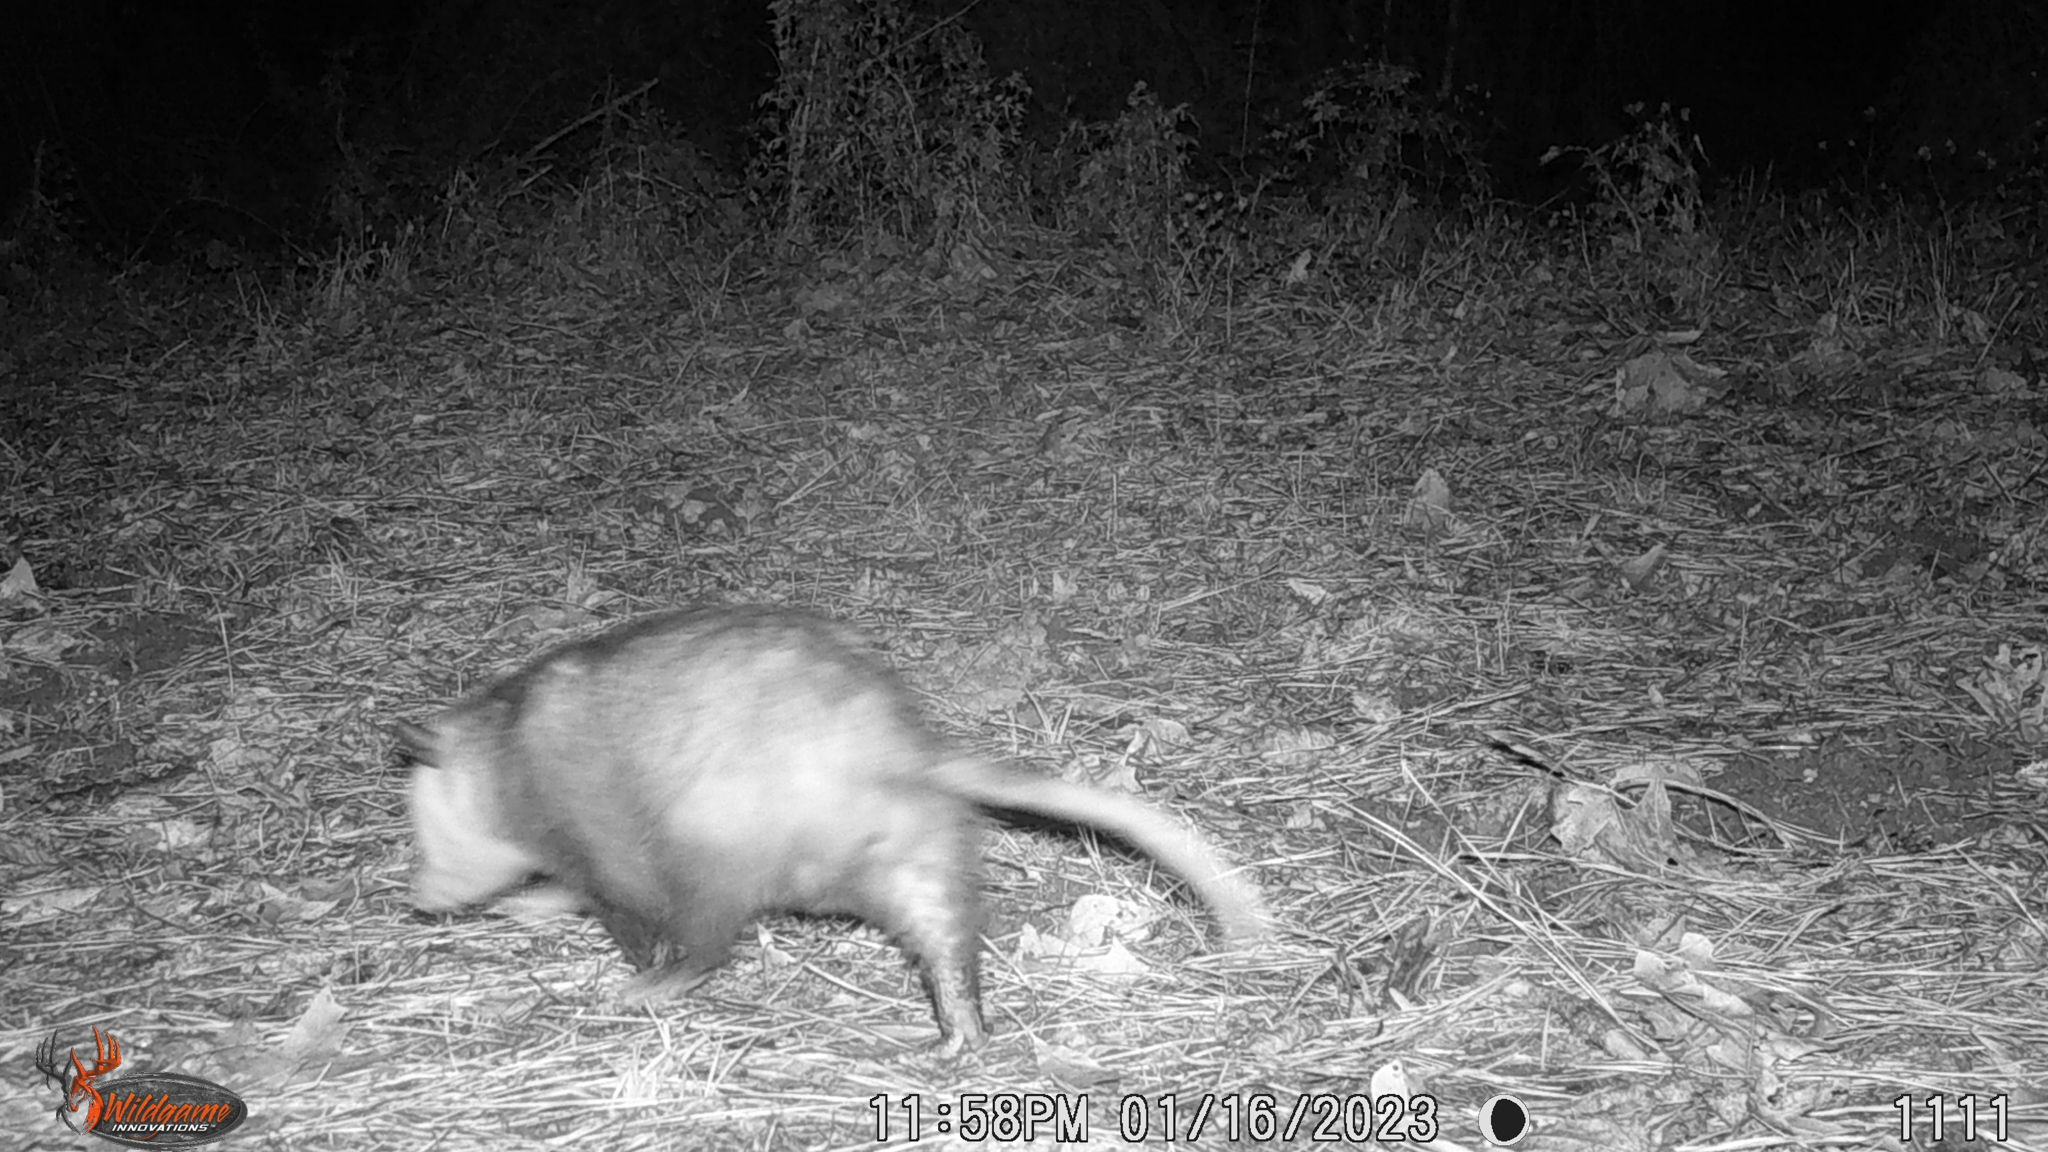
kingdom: Animalia
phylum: Chordata
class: Mammalia
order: Didelphimorphia
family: Didelphidae
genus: Didelphis
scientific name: Didelphis virginiana
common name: Virginia opossum
